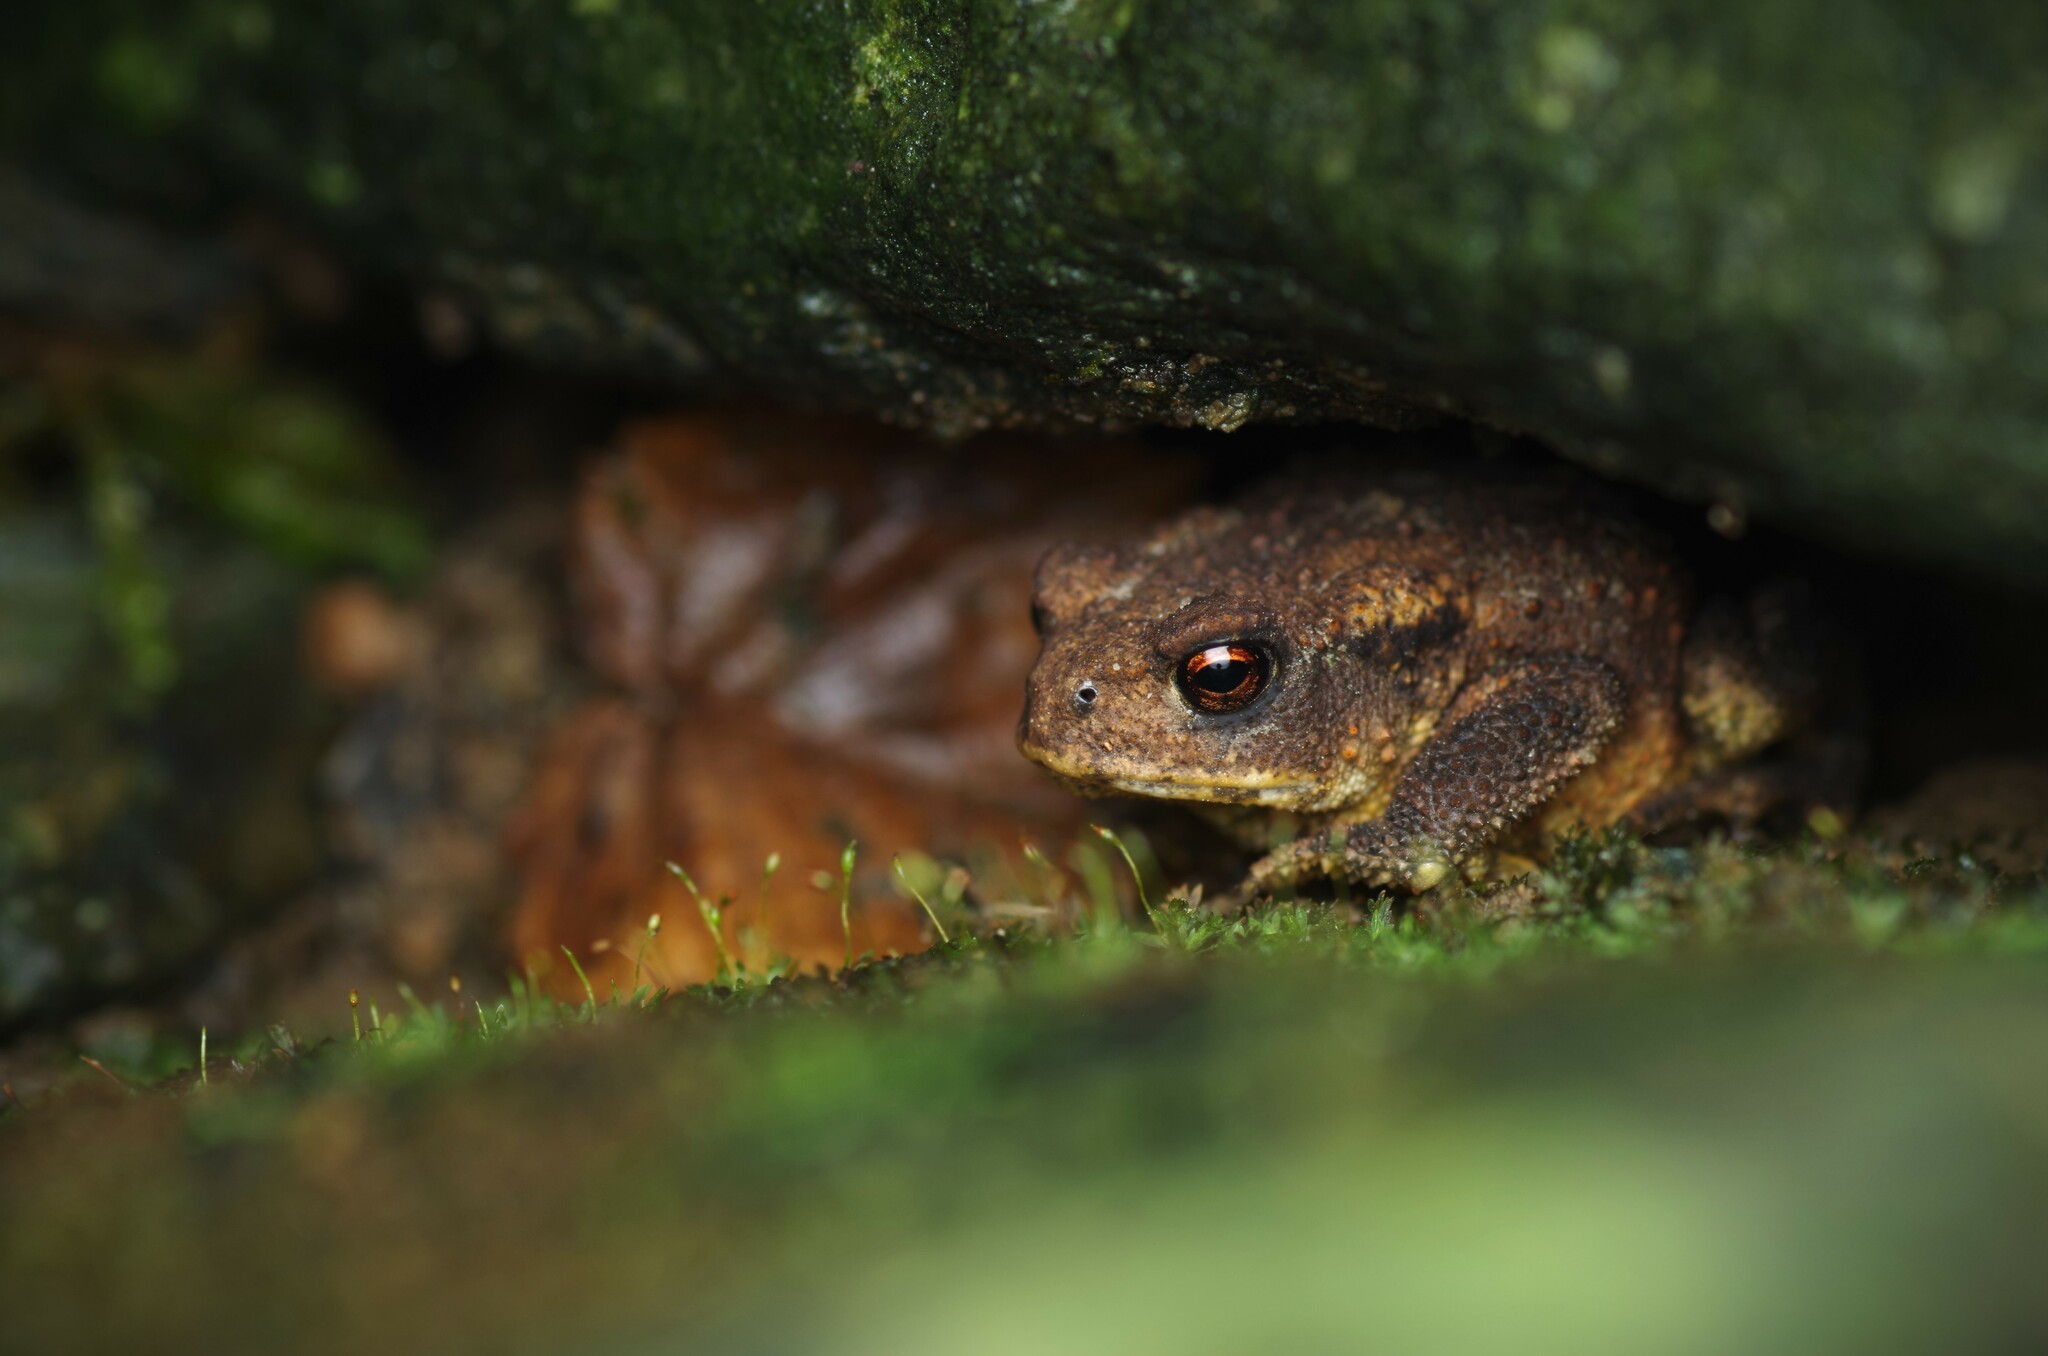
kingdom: Animalia
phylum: Chordata
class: Amphibia
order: Anura
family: Bufonidae
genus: Bufo
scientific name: Bufo spinosus
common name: Western common toad
